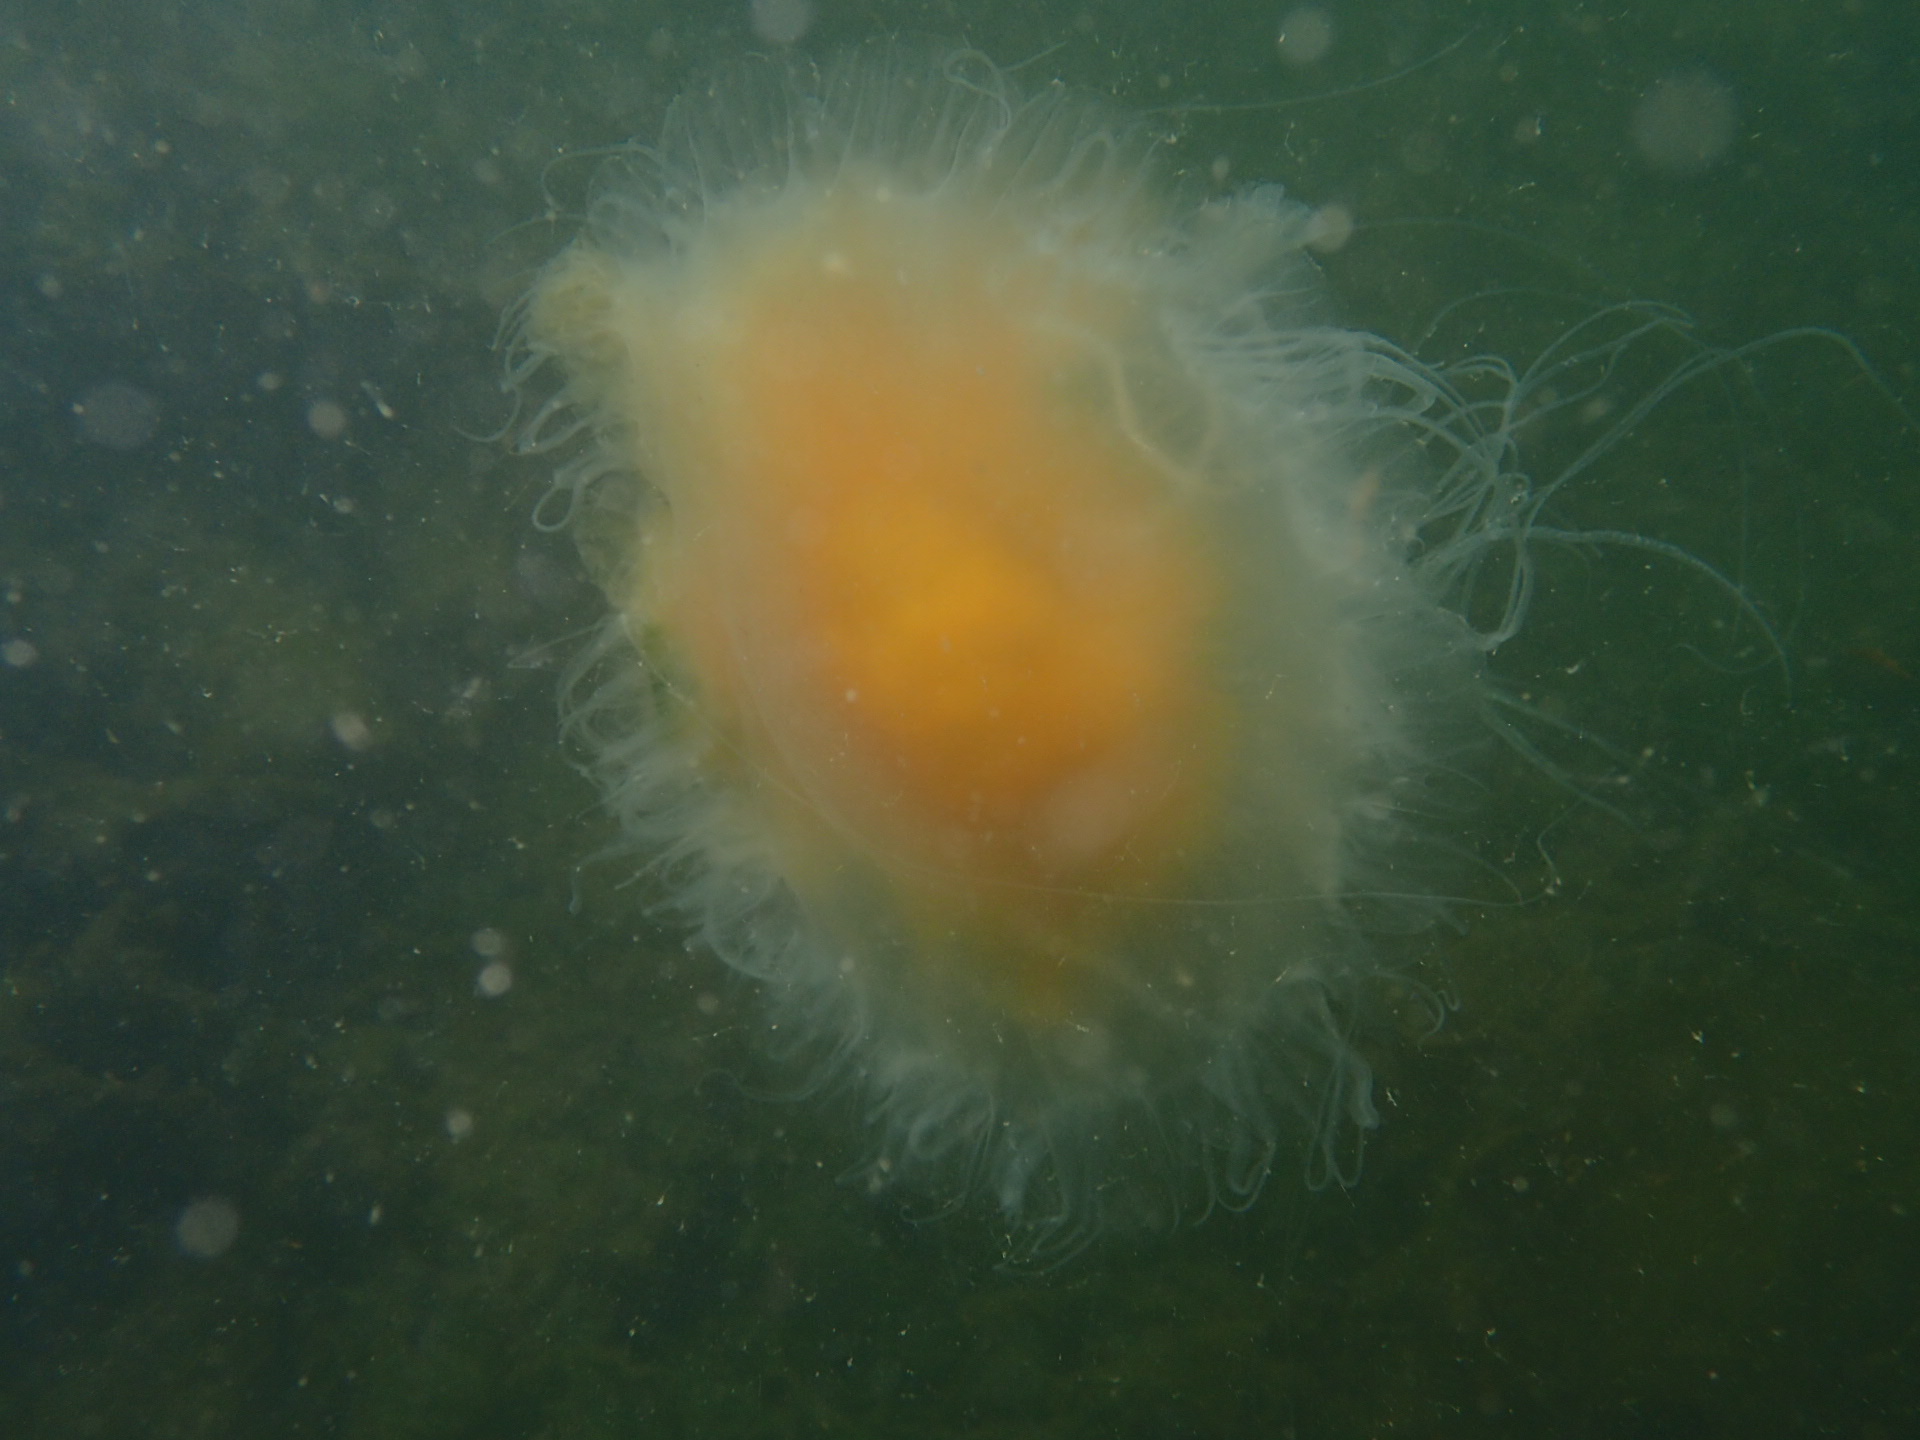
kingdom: Animalia
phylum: Cnidaria
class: Scyphozoa
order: Semaeostomeae
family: Phacellophoridae
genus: Phacellophora
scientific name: Phacellophora camtschatica
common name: Fried-egg jellyfish
